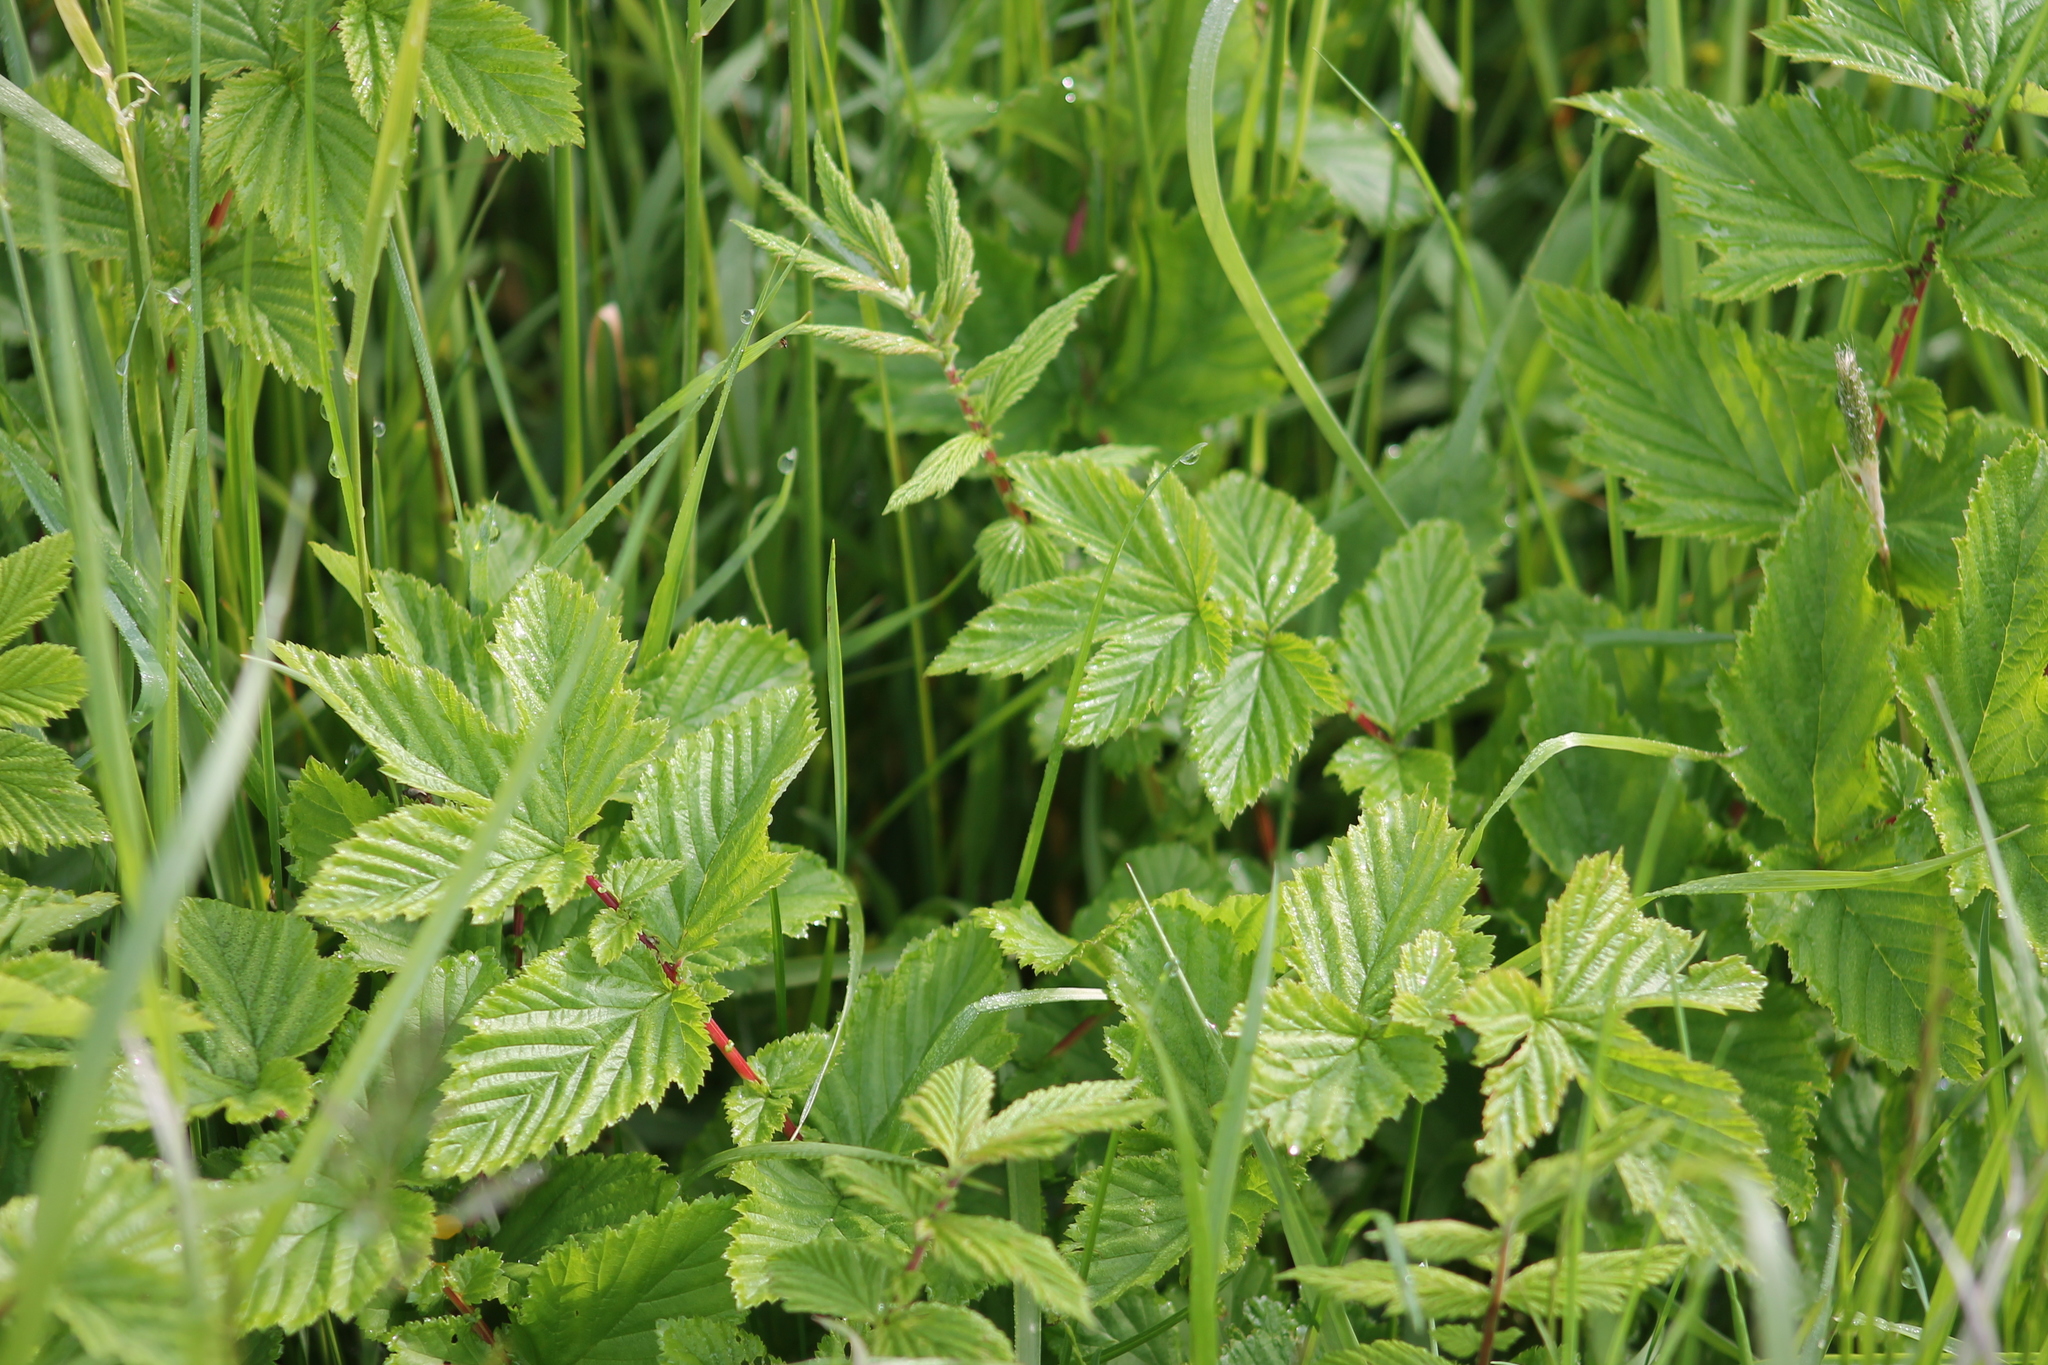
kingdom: Plantae
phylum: Tracheophyta
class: Magnoliopsida
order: Rosales
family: Rosaceae
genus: Filipendula
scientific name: Filipendula ulmaria
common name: Meadowsweet
